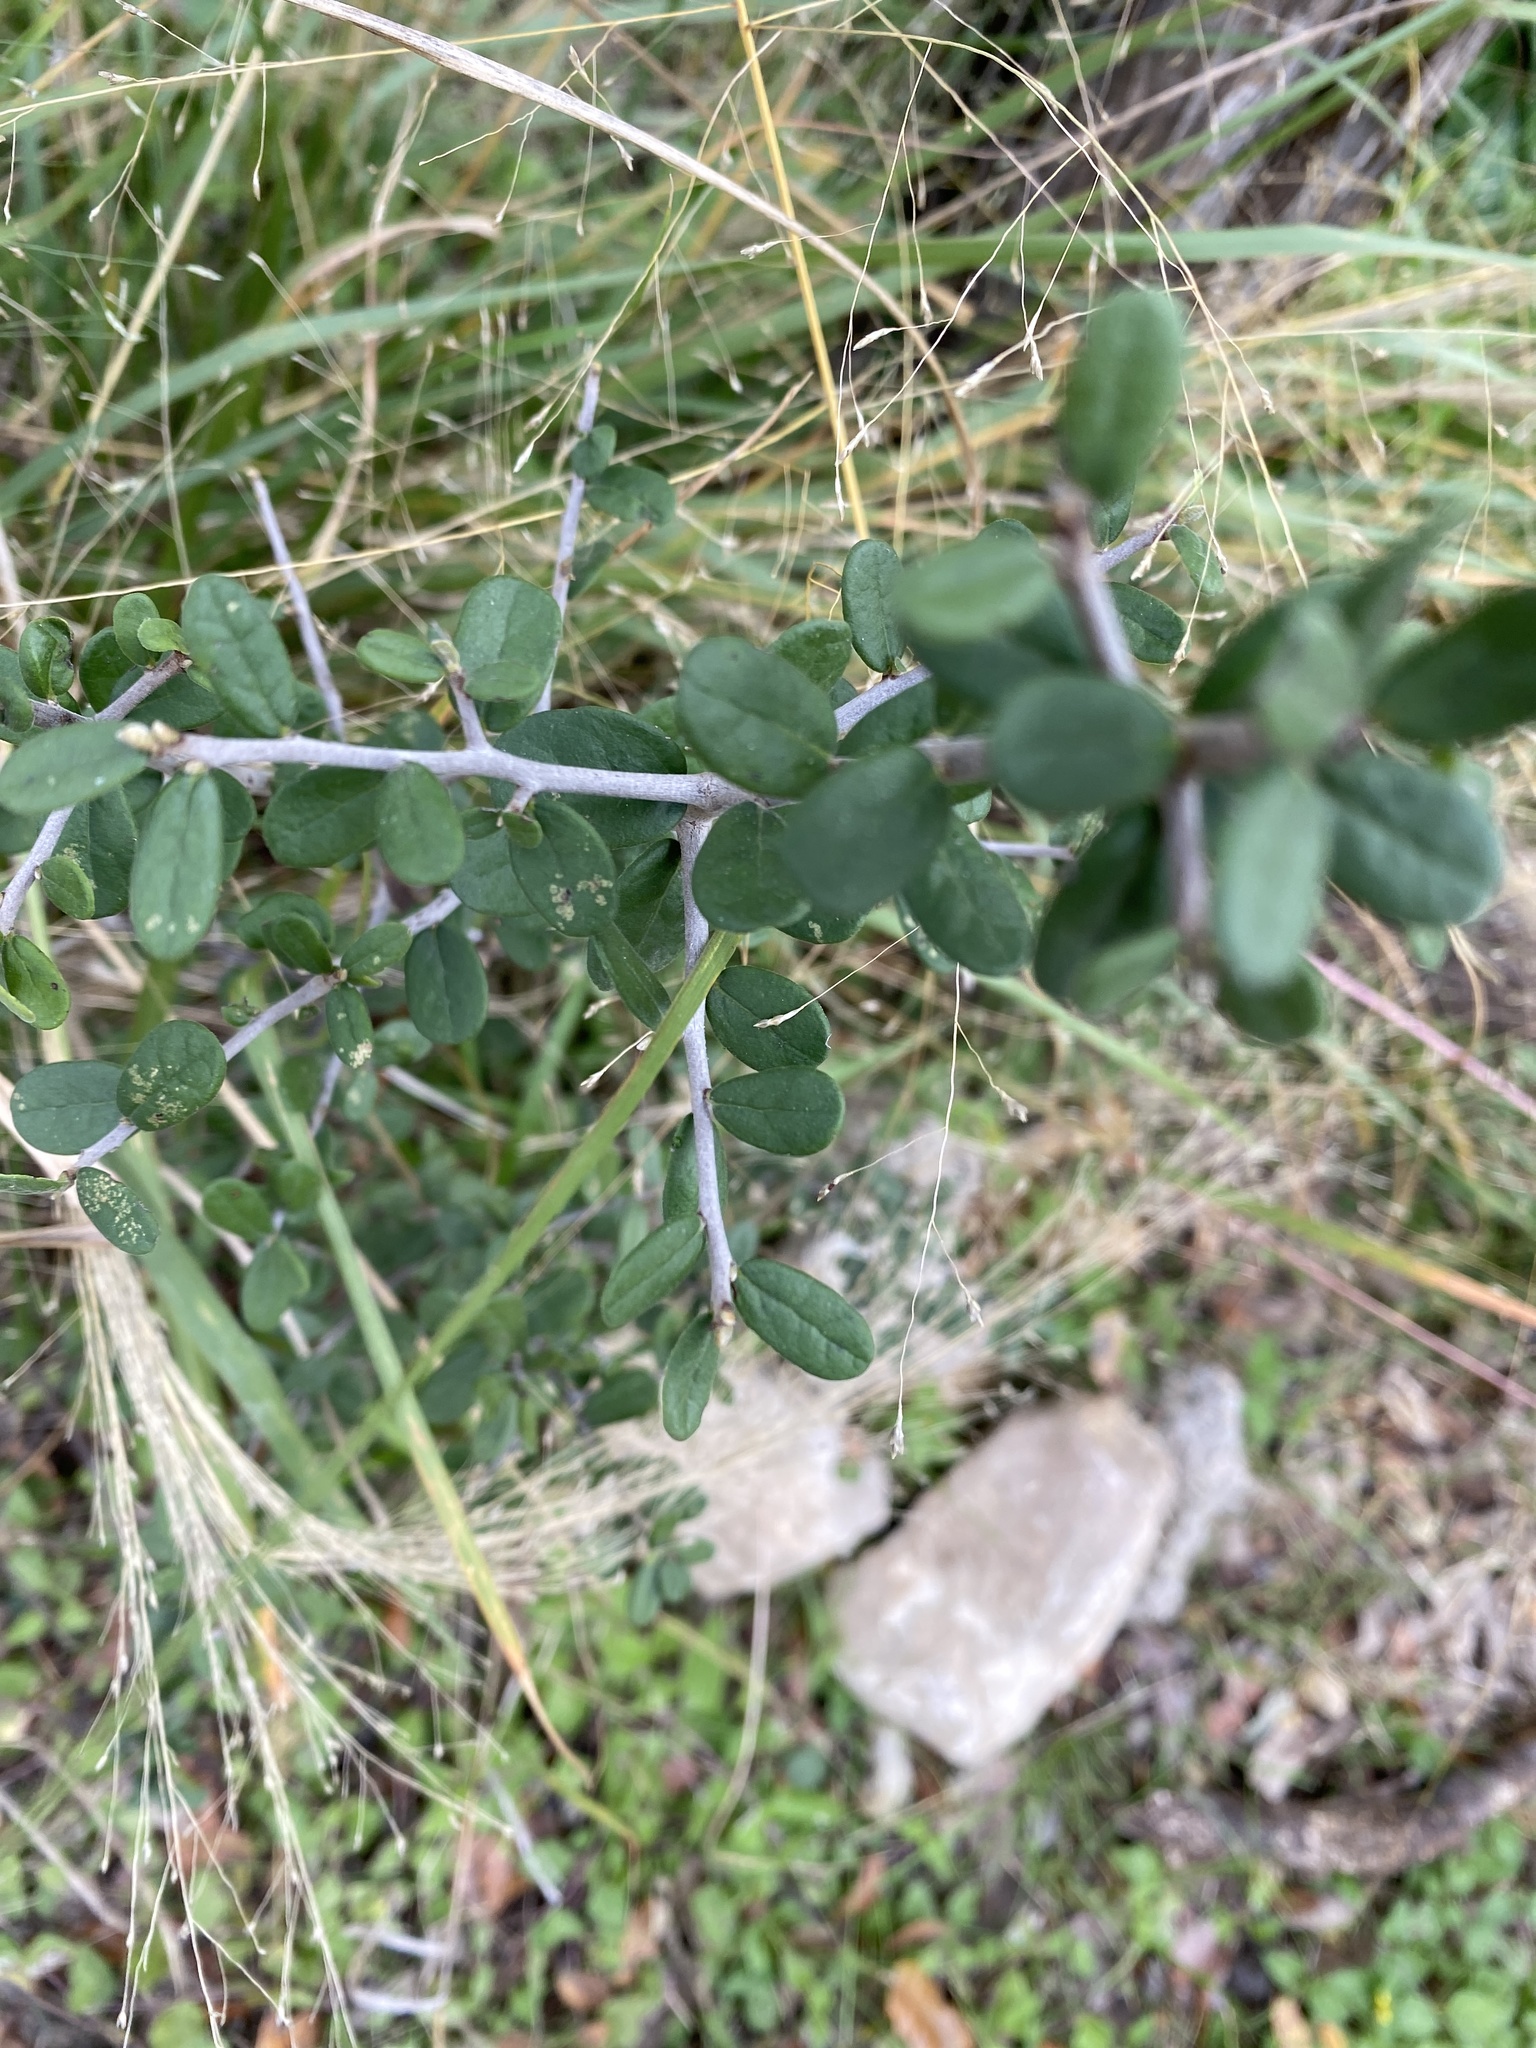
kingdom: Plantae
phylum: Tracheophyta
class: Magnoliopsida
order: Ericales
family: Ebenaceae
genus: Diospyros
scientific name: Diospyros texana
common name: Texas persimmon
